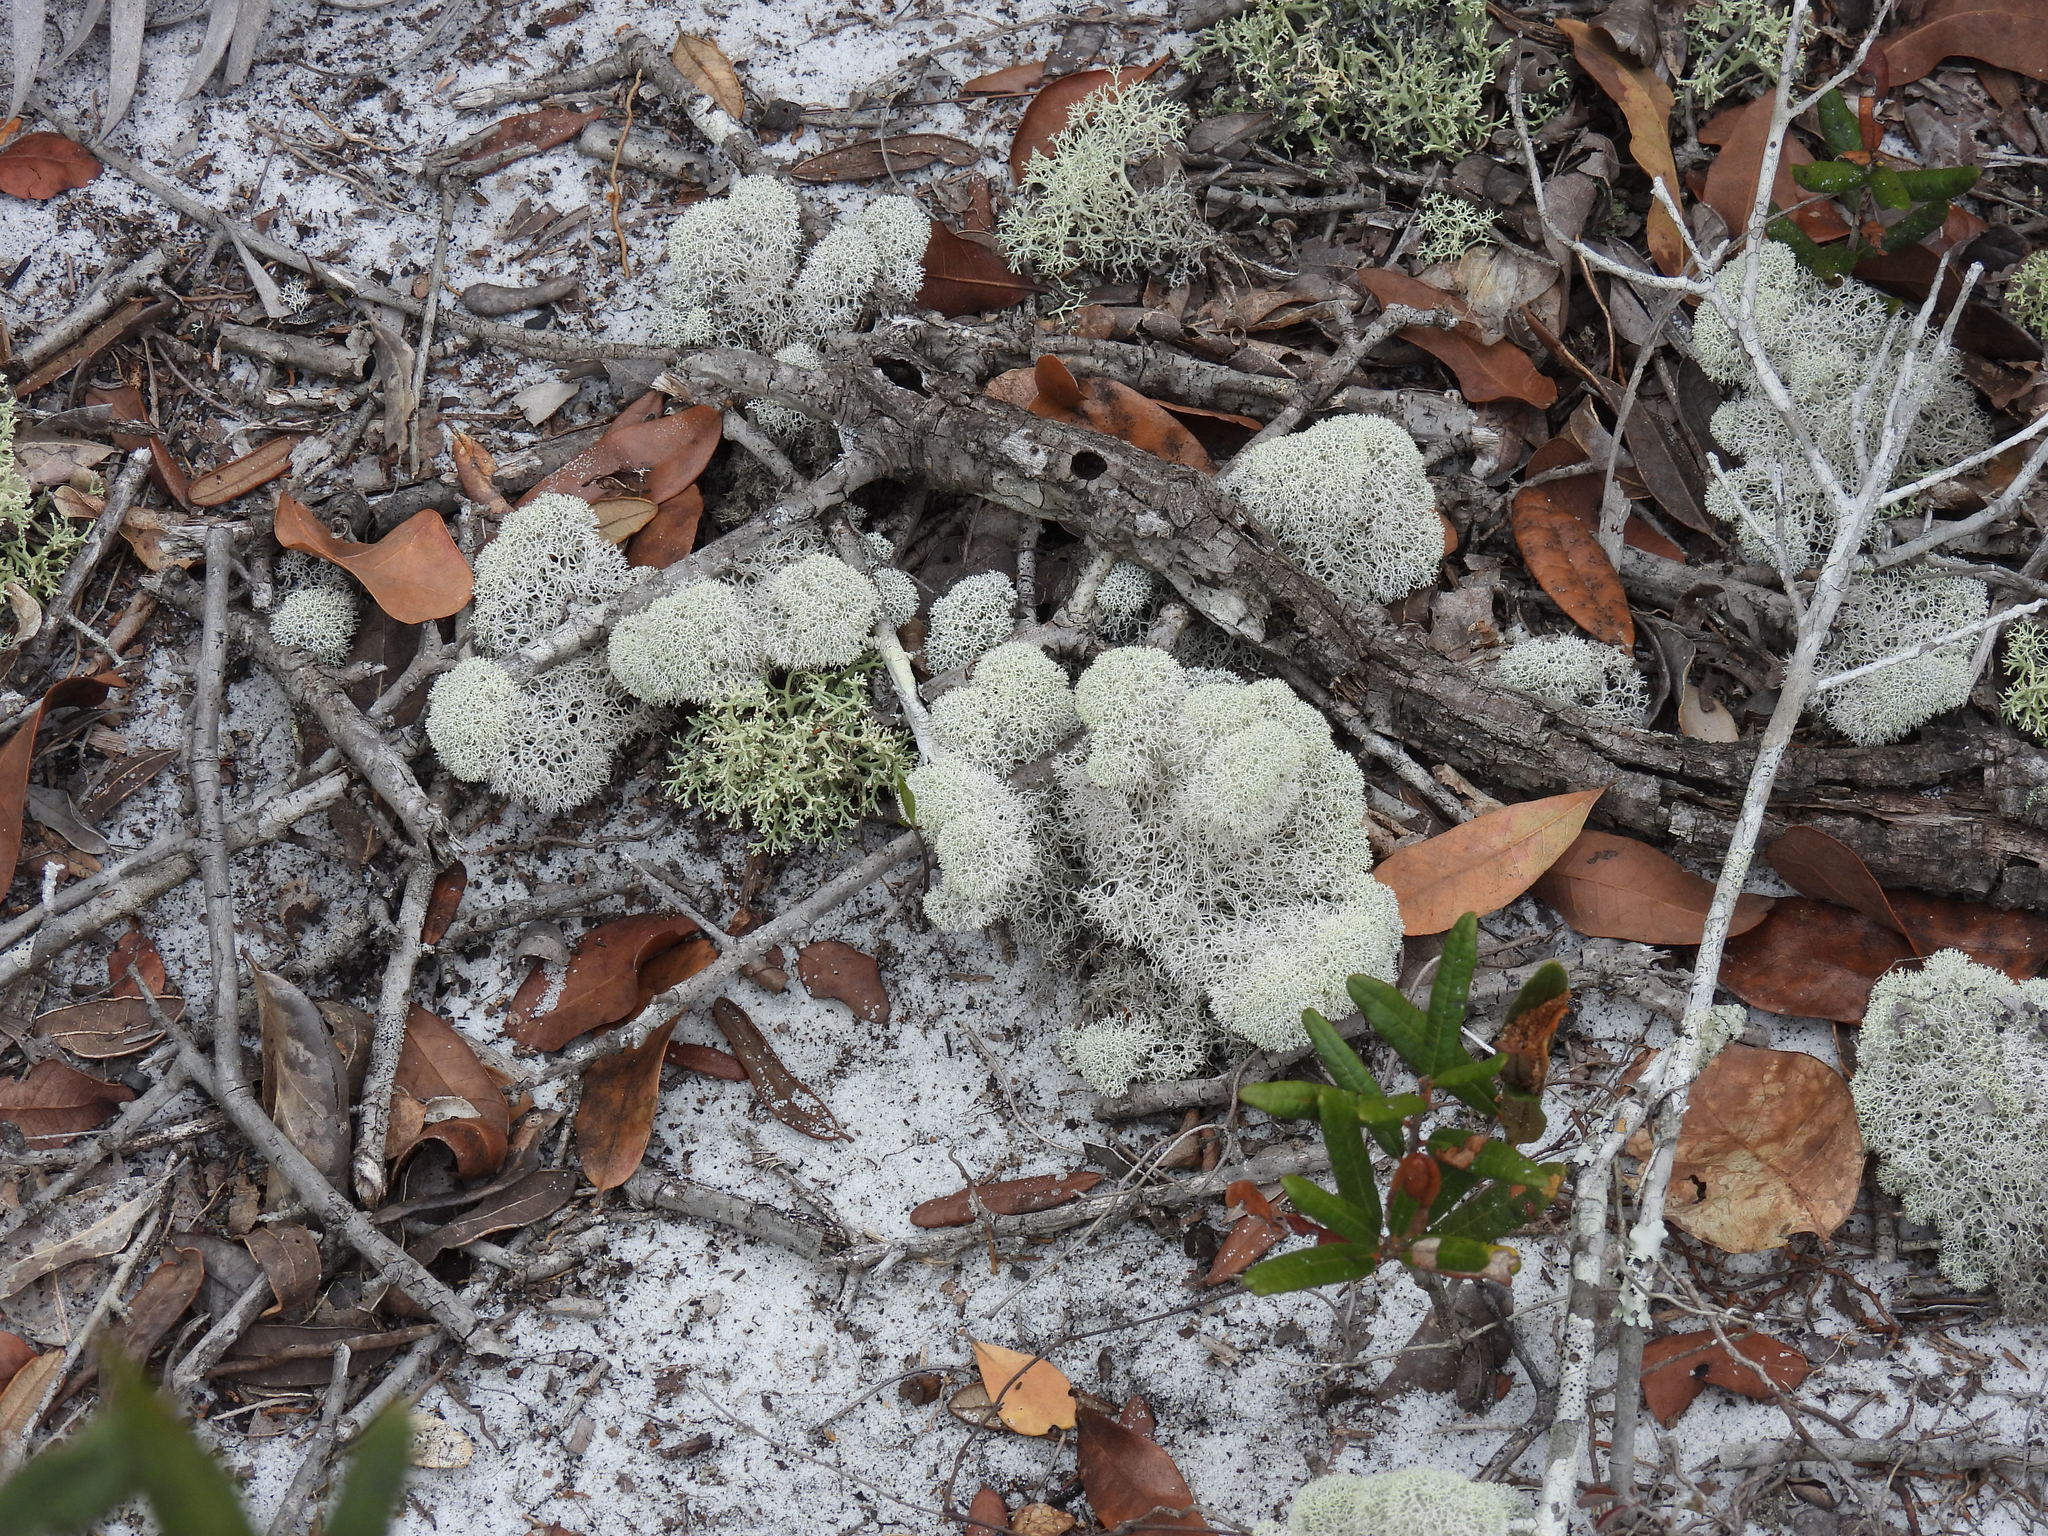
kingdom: Fungi
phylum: Ascomycota
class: Lecanoromycetes
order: Lecanorales
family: Cladoniaceae
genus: Cladonia
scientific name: Cladonia evansii
